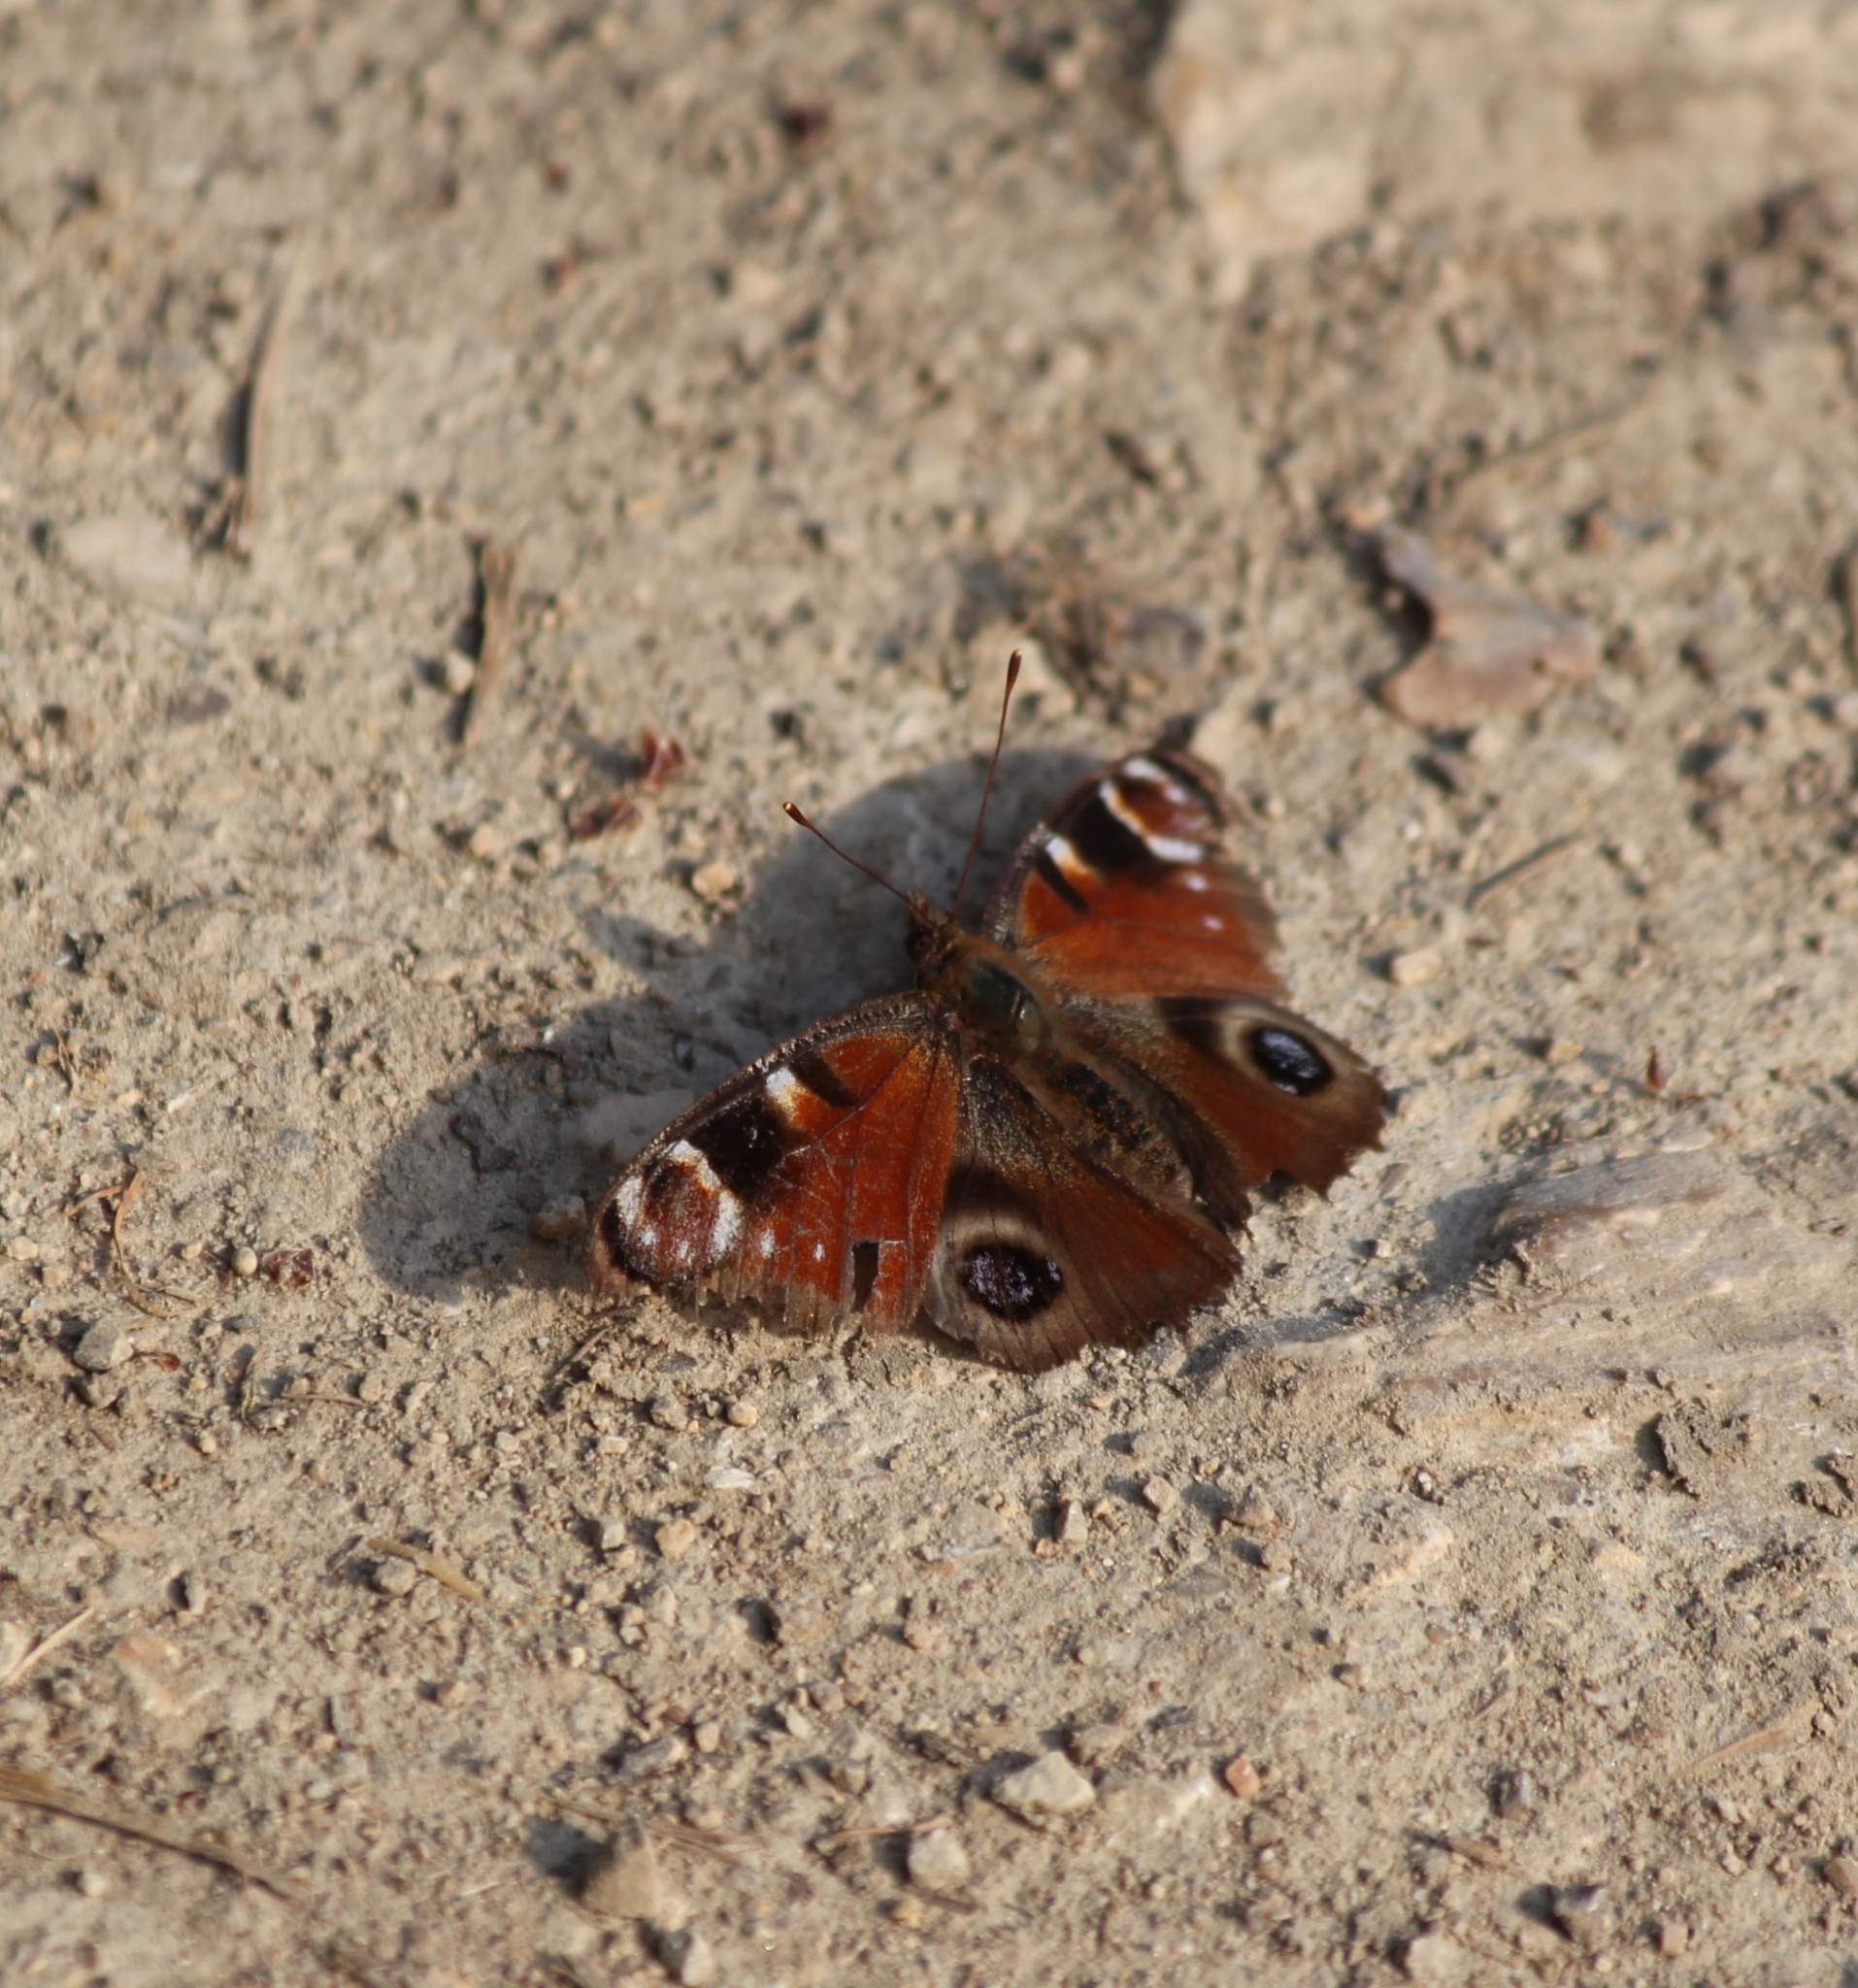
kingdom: Animalia
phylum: Arthropoda
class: Insecta
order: Lepidoptera
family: Nymphalidae
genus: Aglais
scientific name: Aglais io
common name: Peacock
